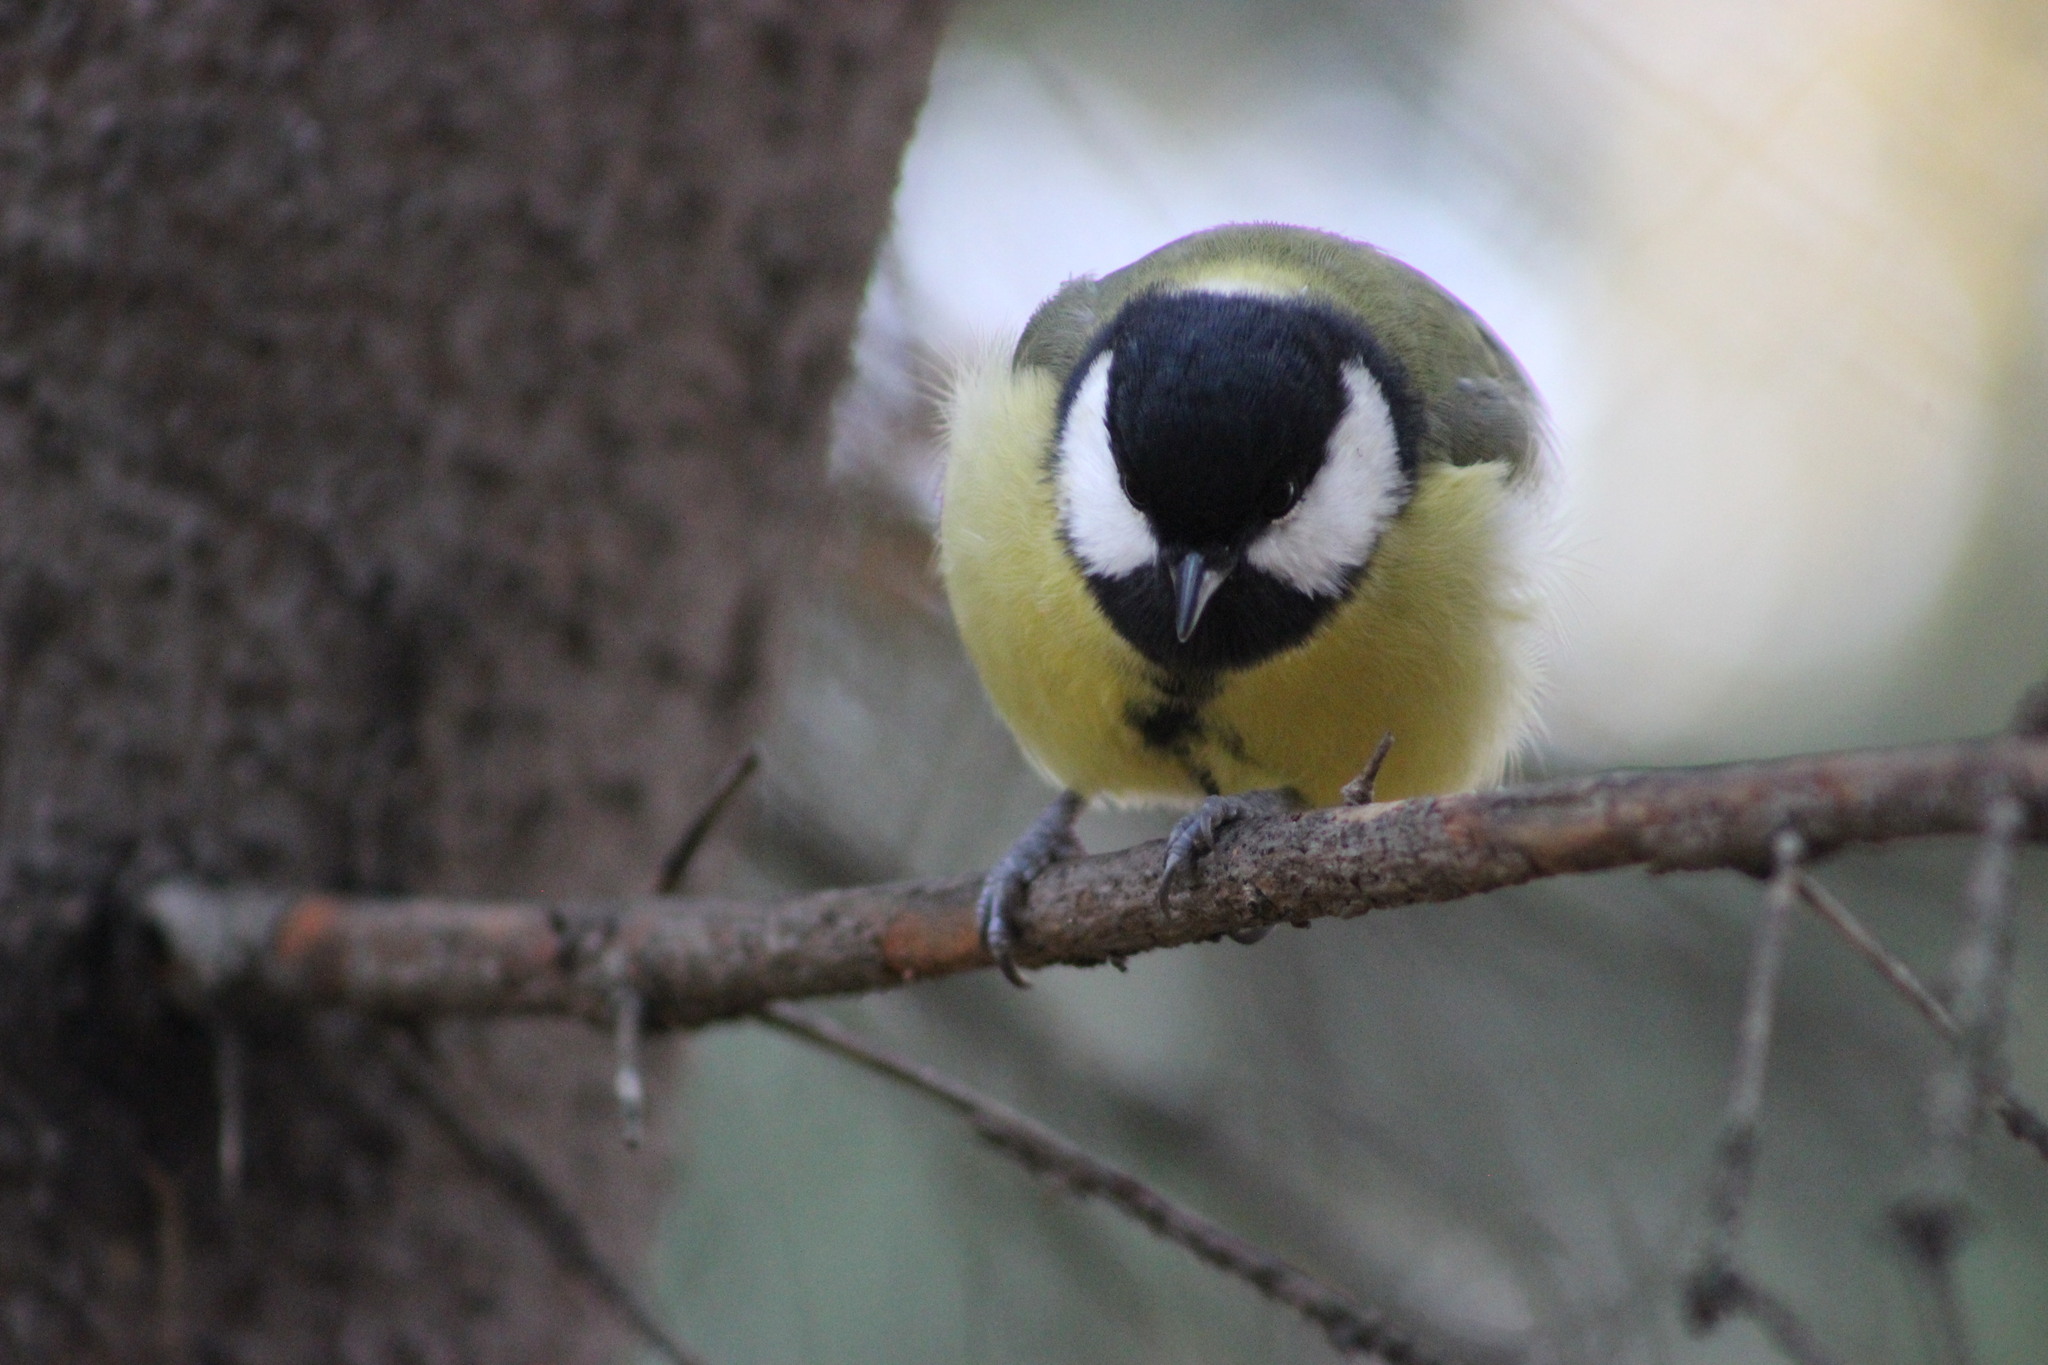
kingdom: Animalia
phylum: Chordata
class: Aves
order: Passeriformes
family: Paridae
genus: Parus
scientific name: Parus major
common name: Great tit
